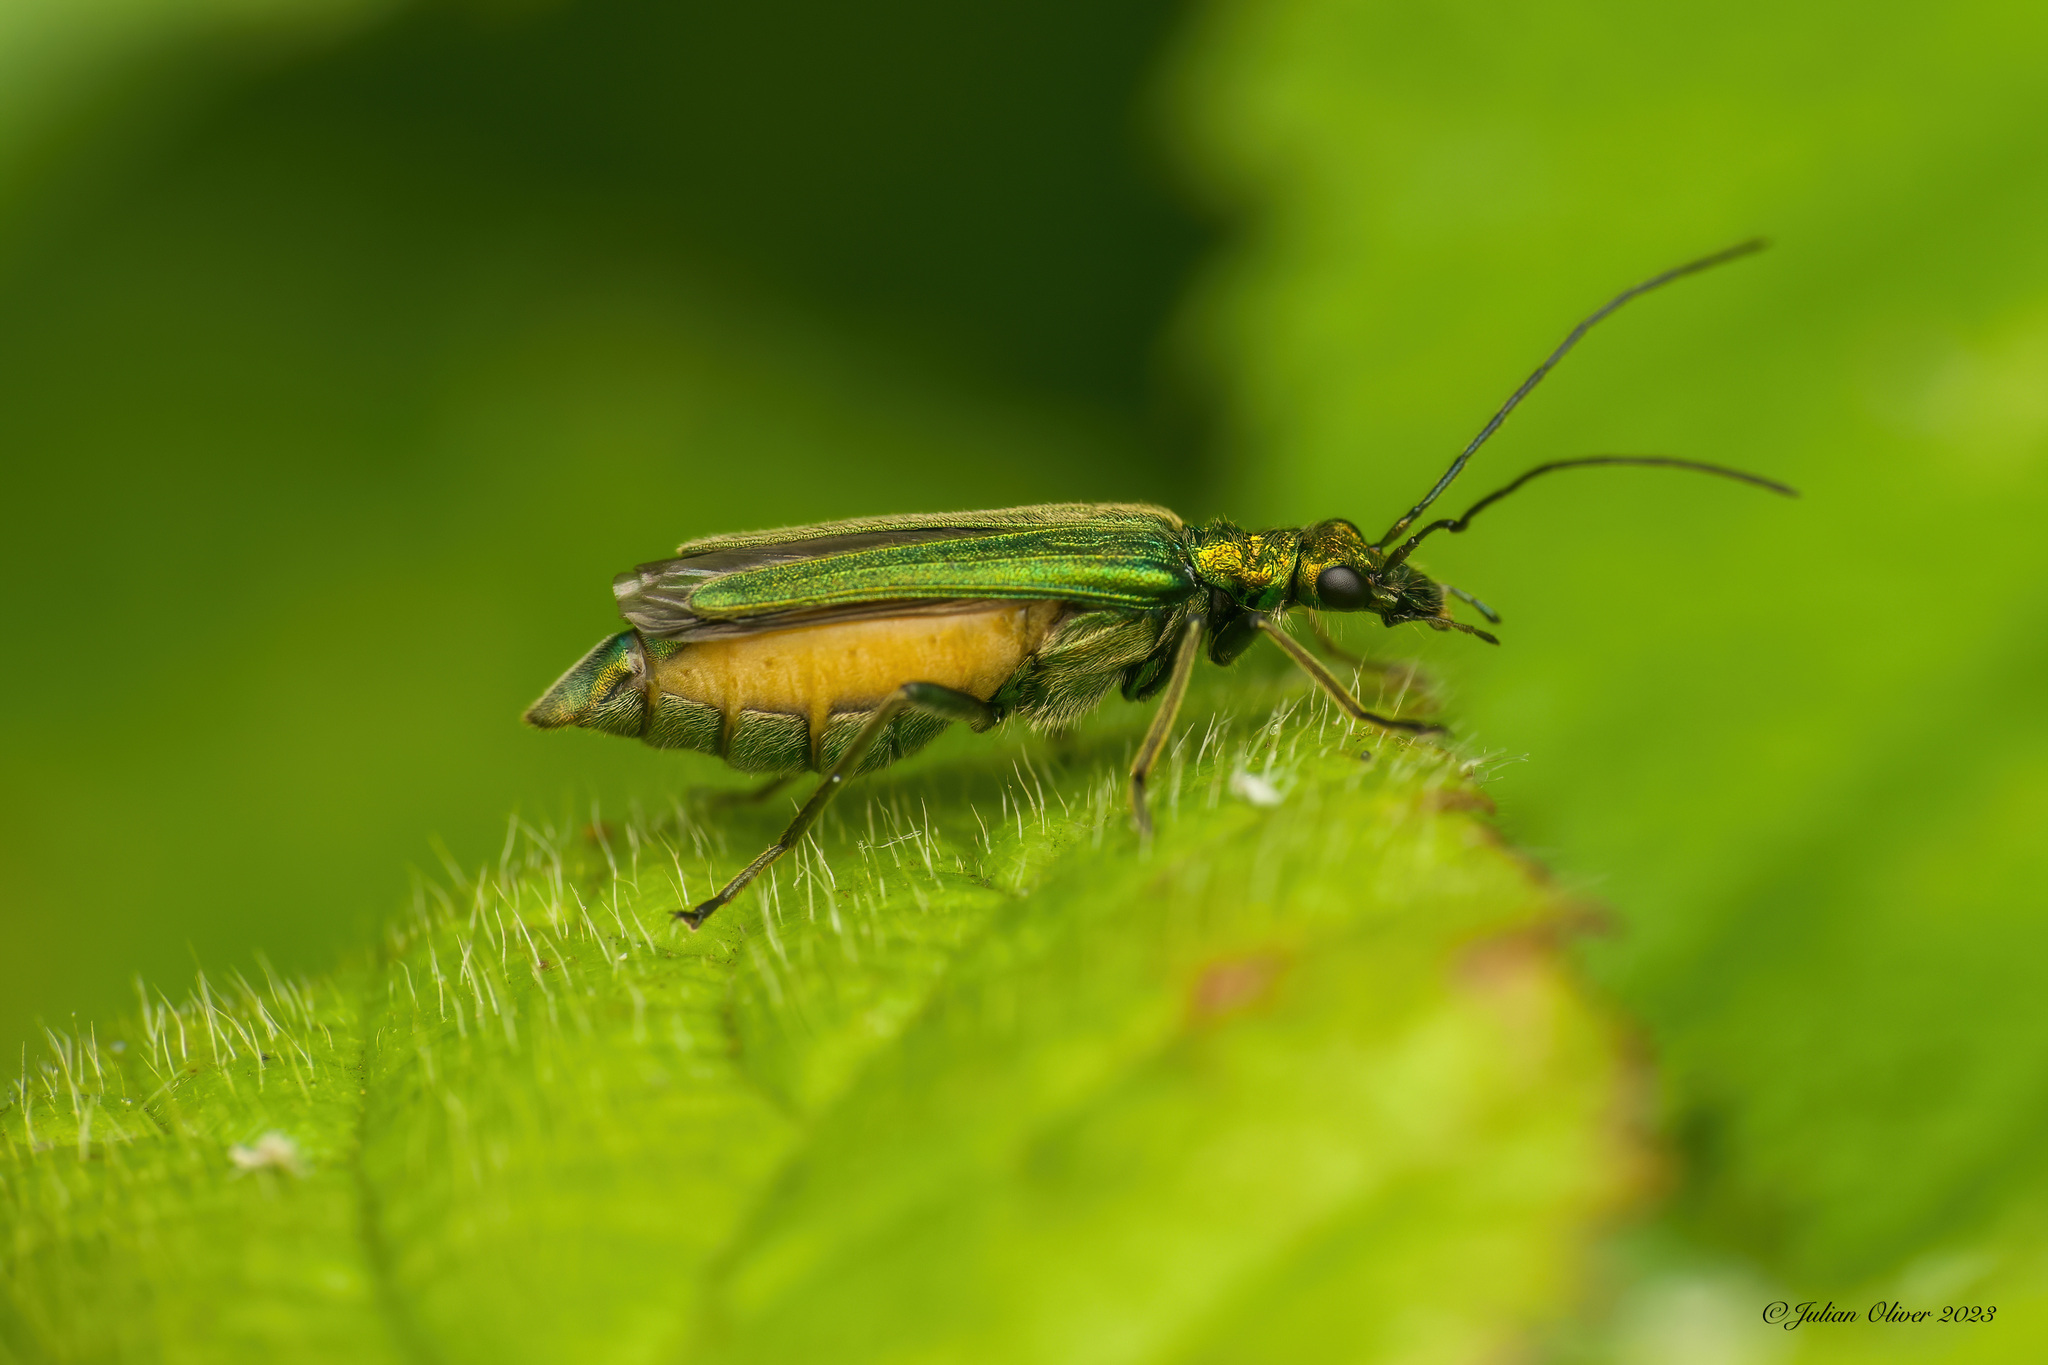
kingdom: Animalia
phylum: Arthropoda
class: Insecta
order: Coleoptera
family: Oedemeridae
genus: Oedemera
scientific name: Oedemera nobilis
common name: Swollen-thighed beetle
